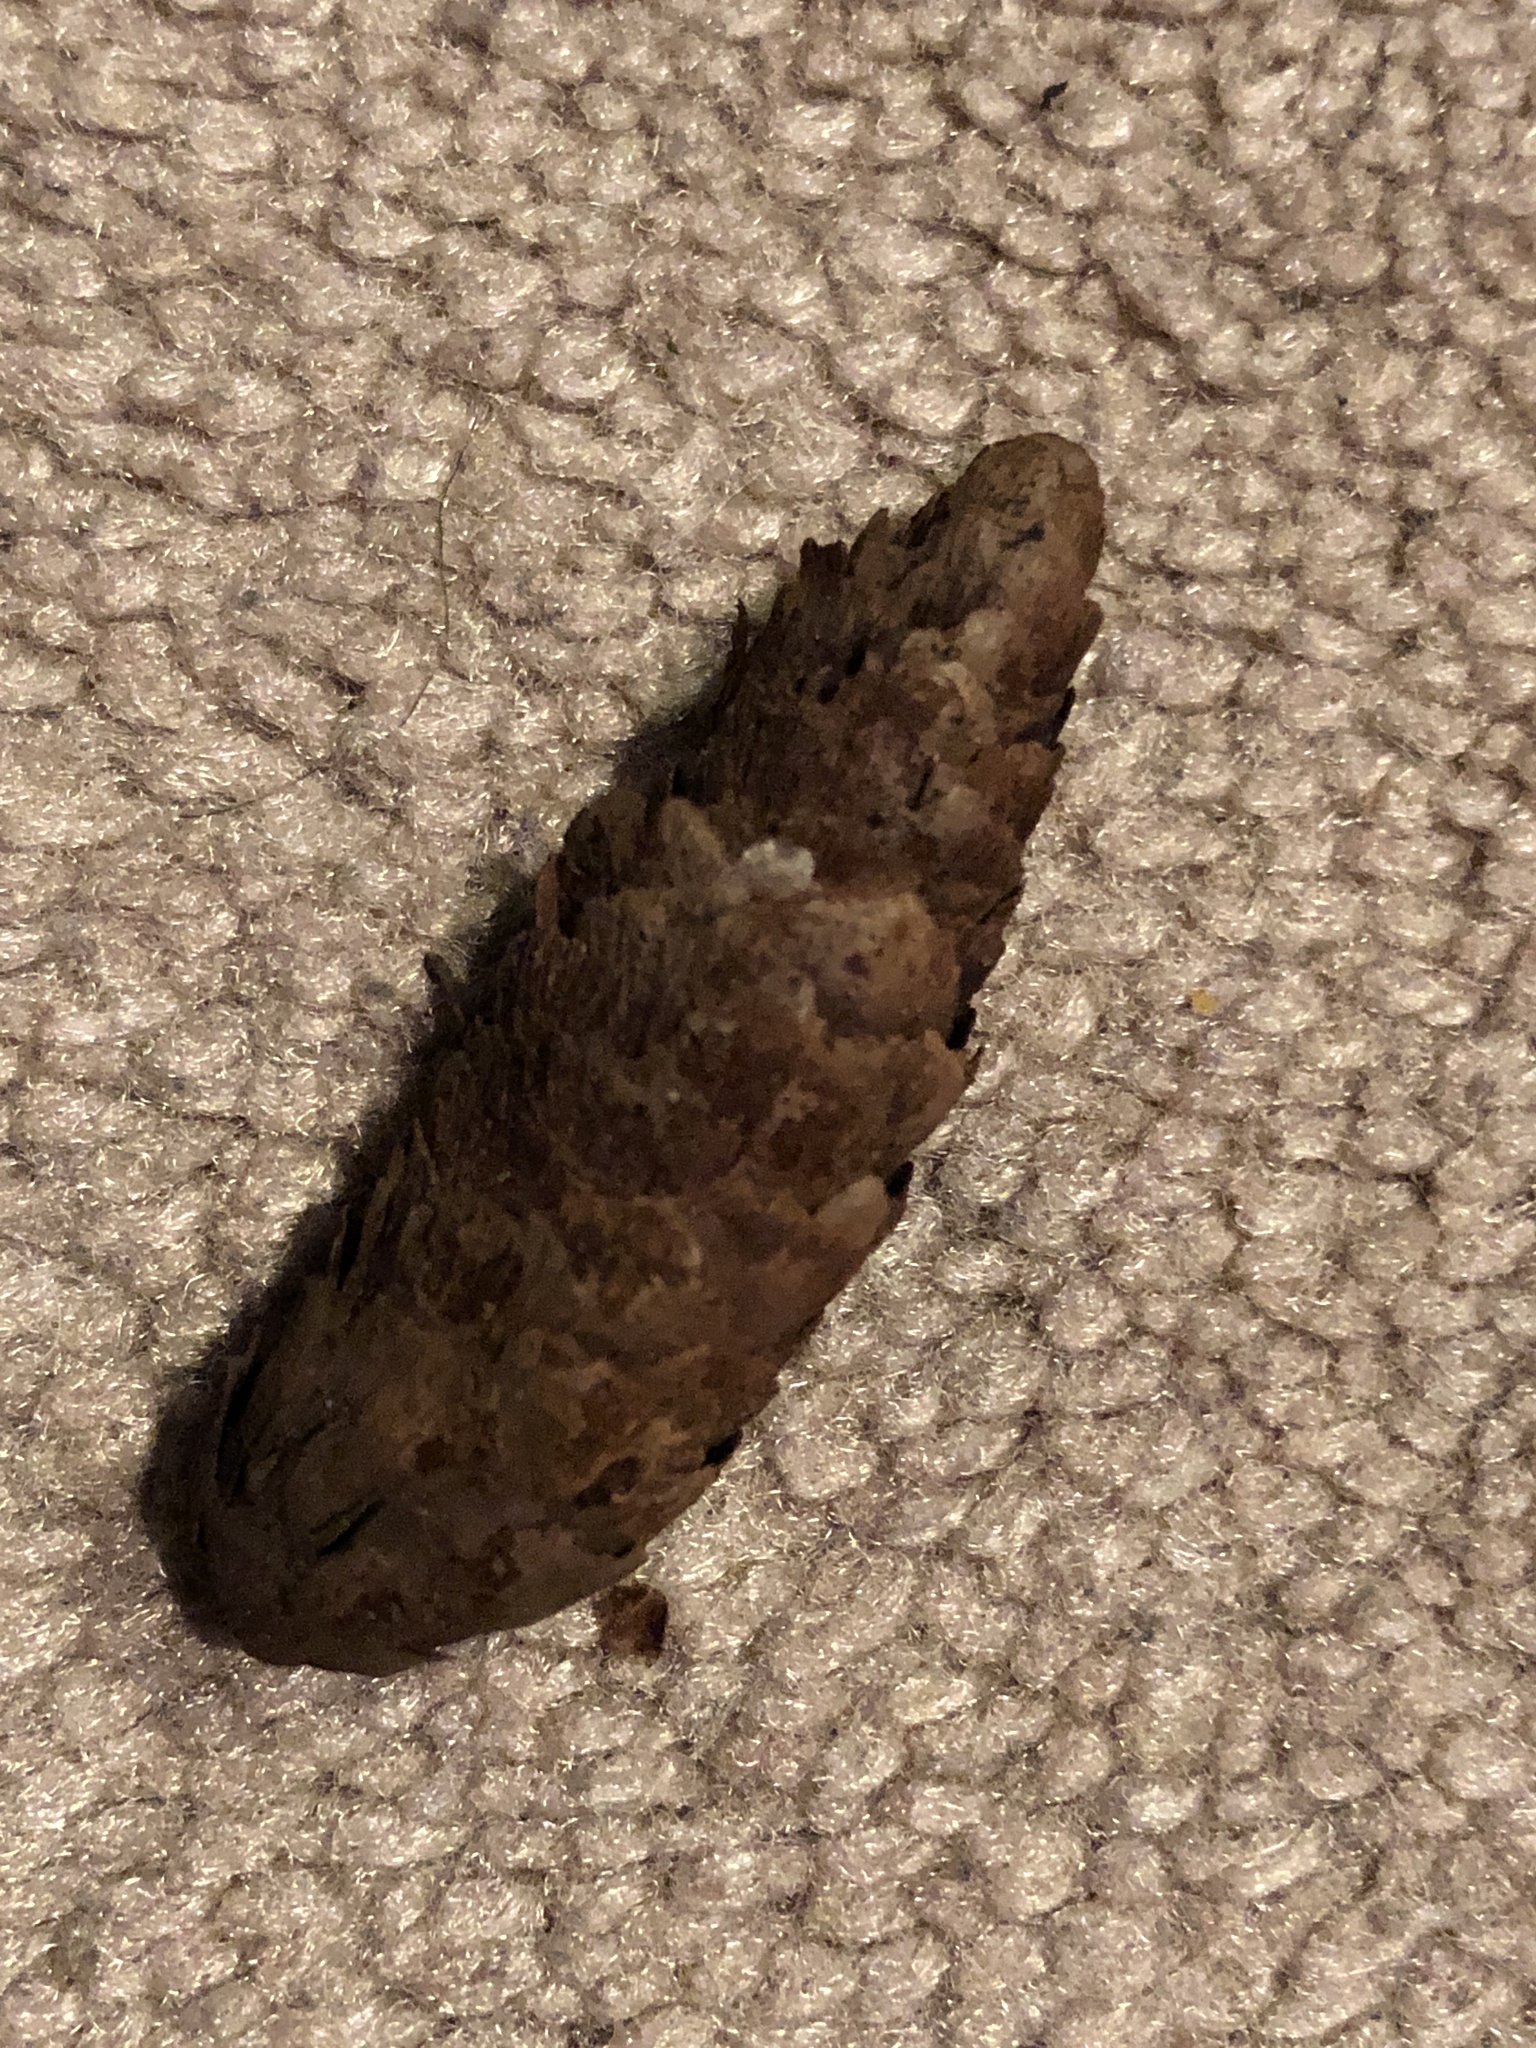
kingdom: Plantae
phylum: Tracheophyta
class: Pinopsida
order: Pinales
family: Pinaceae
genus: Picea
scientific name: Picea glauca
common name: White spruce
